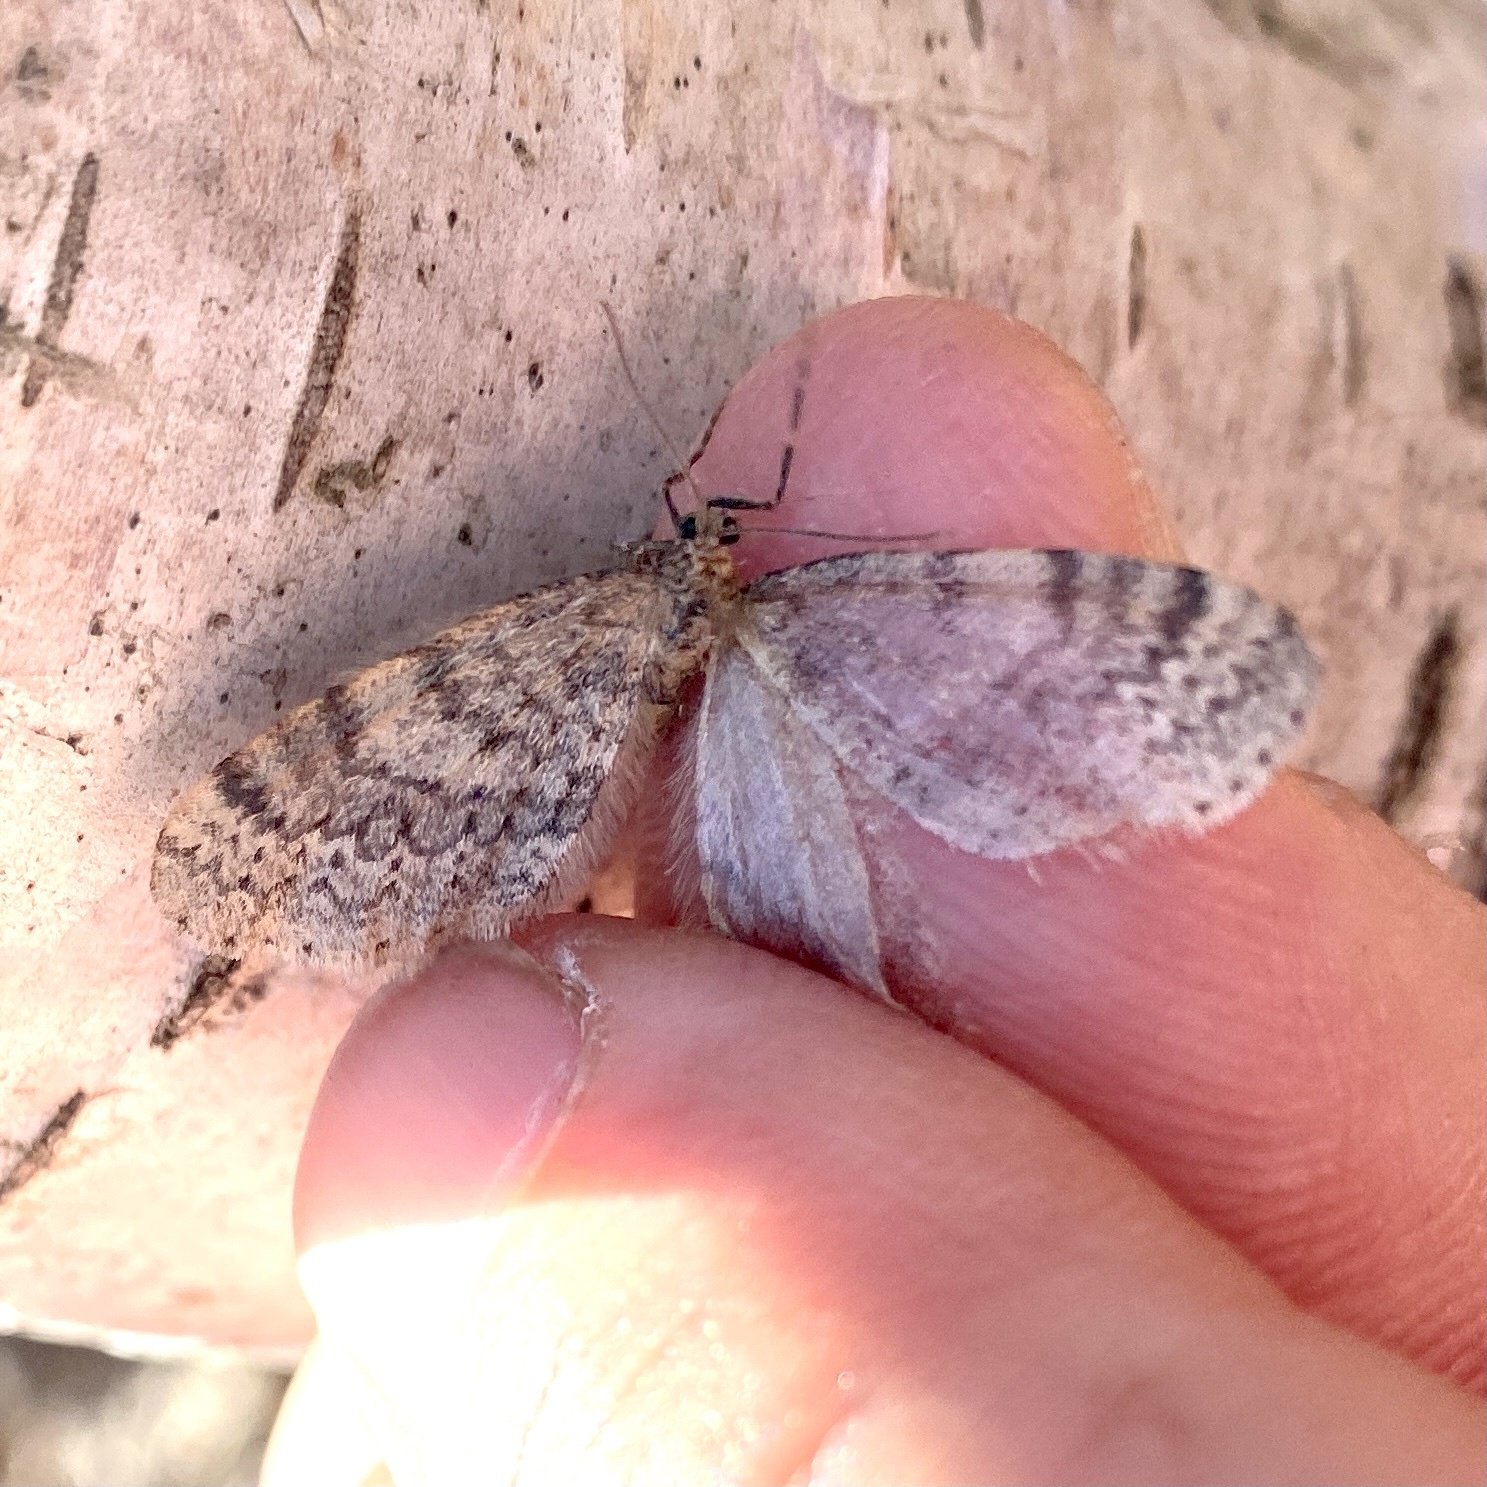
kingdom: Animalia
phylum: Arthropoda
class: Insecta
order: Lepidoptera
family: Geometridae
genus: Operophtera
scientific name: Operophtera bruceata
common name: Bruce spanworm
